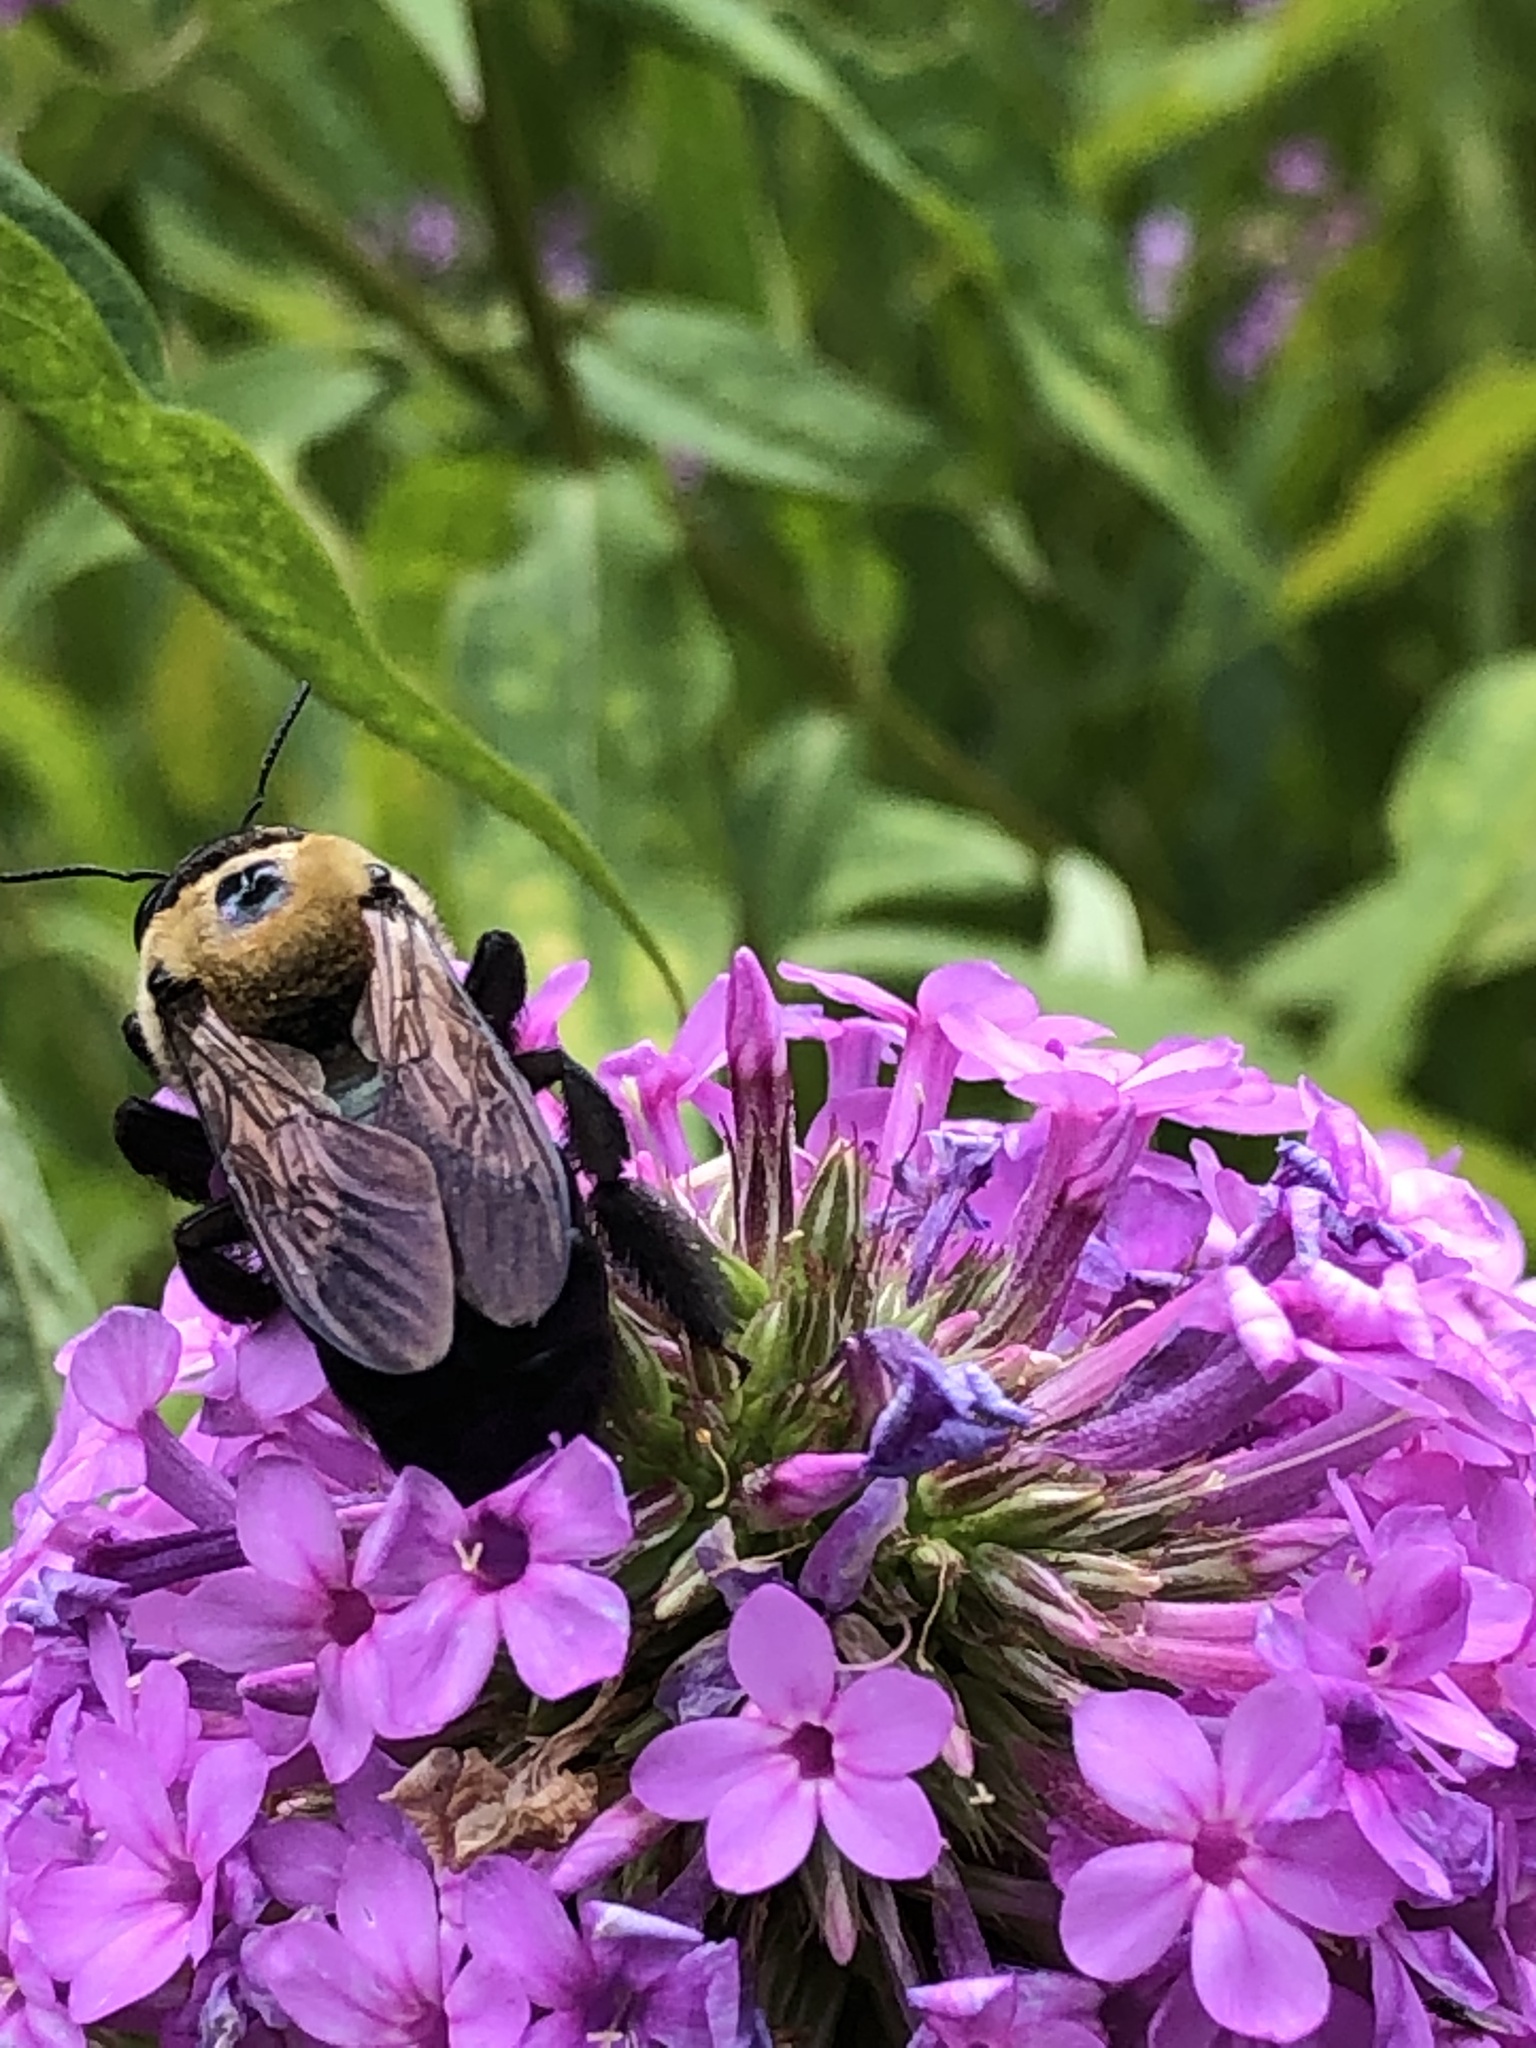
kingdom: Animalia
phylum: Arthropoda
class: Insecta
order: Hymenoptera
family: Apidae
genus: Xylocopa
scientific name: Xylocopa virginica
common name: Carpenter bee
